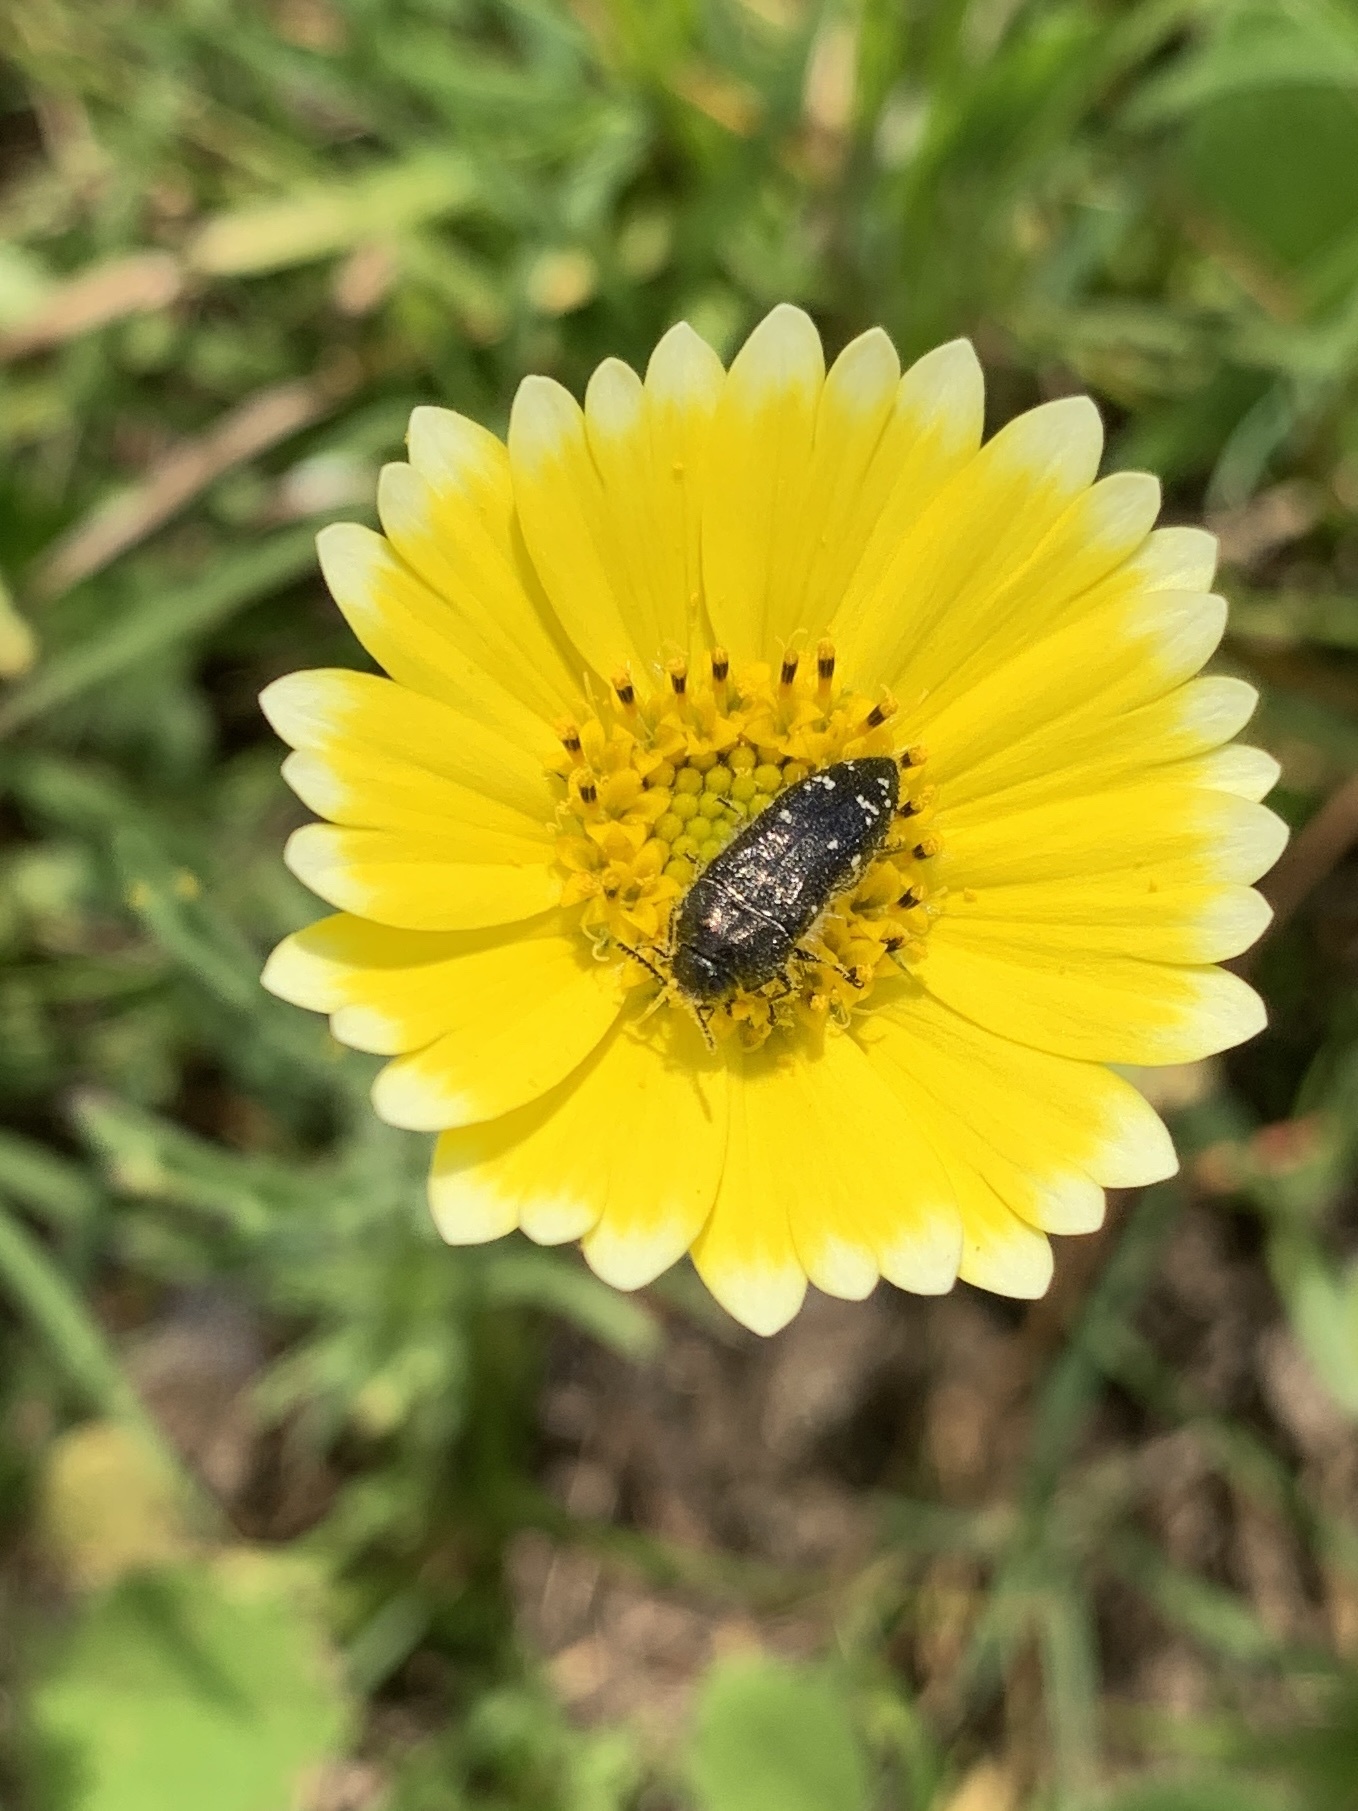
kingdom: Animalia
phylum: Arthropoda
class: Insecta
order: Coleoptera
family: Buprestidae
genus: Acmaeodera
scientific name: Acmaeodera ornatoides
